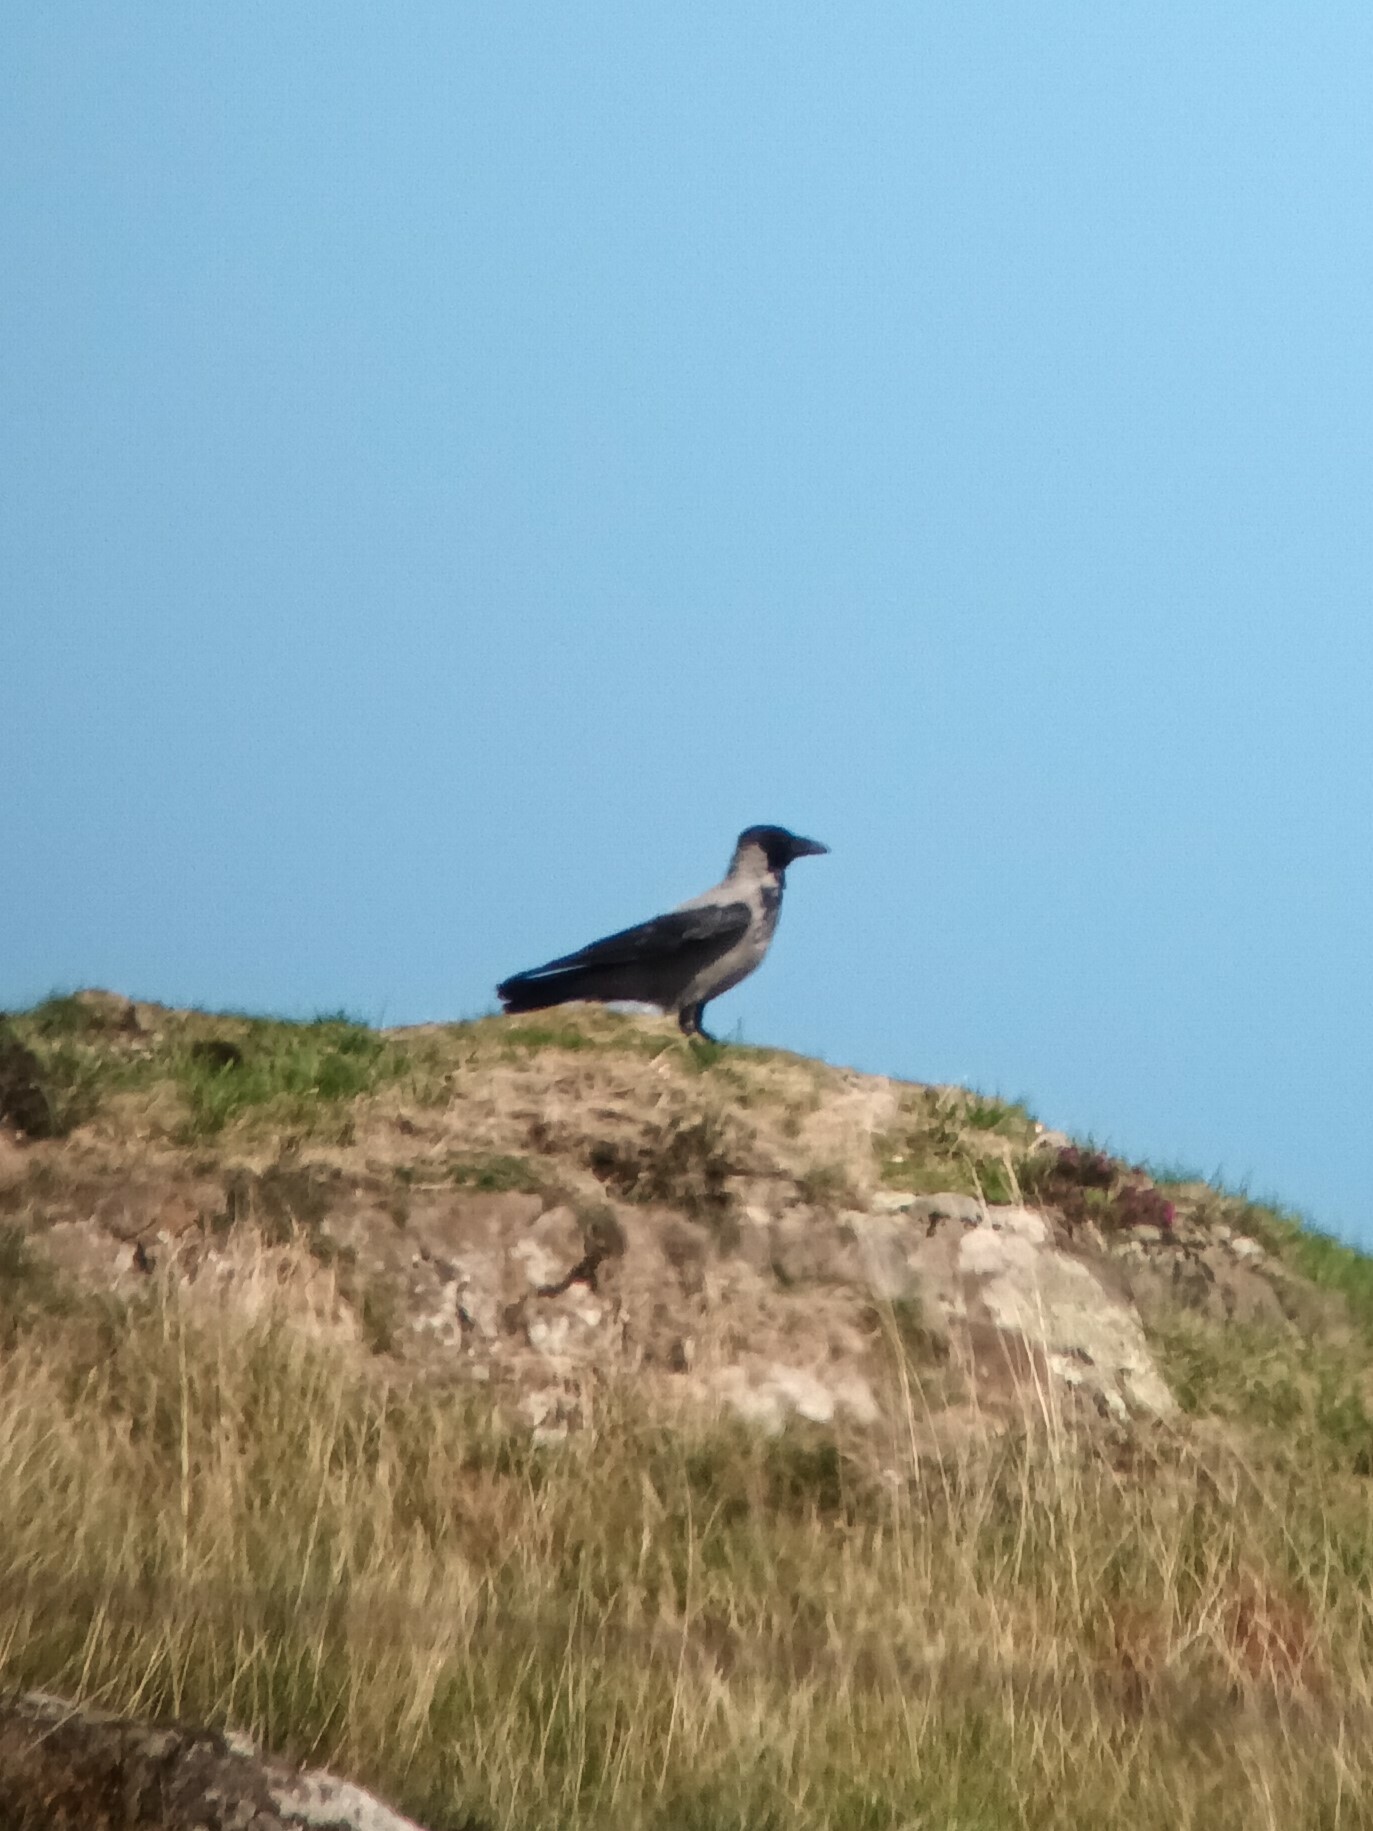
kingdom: Animalia
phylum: Chordata
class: Aves
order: Passeriformes
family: Corvidae
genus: Corvus
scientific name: Corvus cornix
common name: Hooded crow
